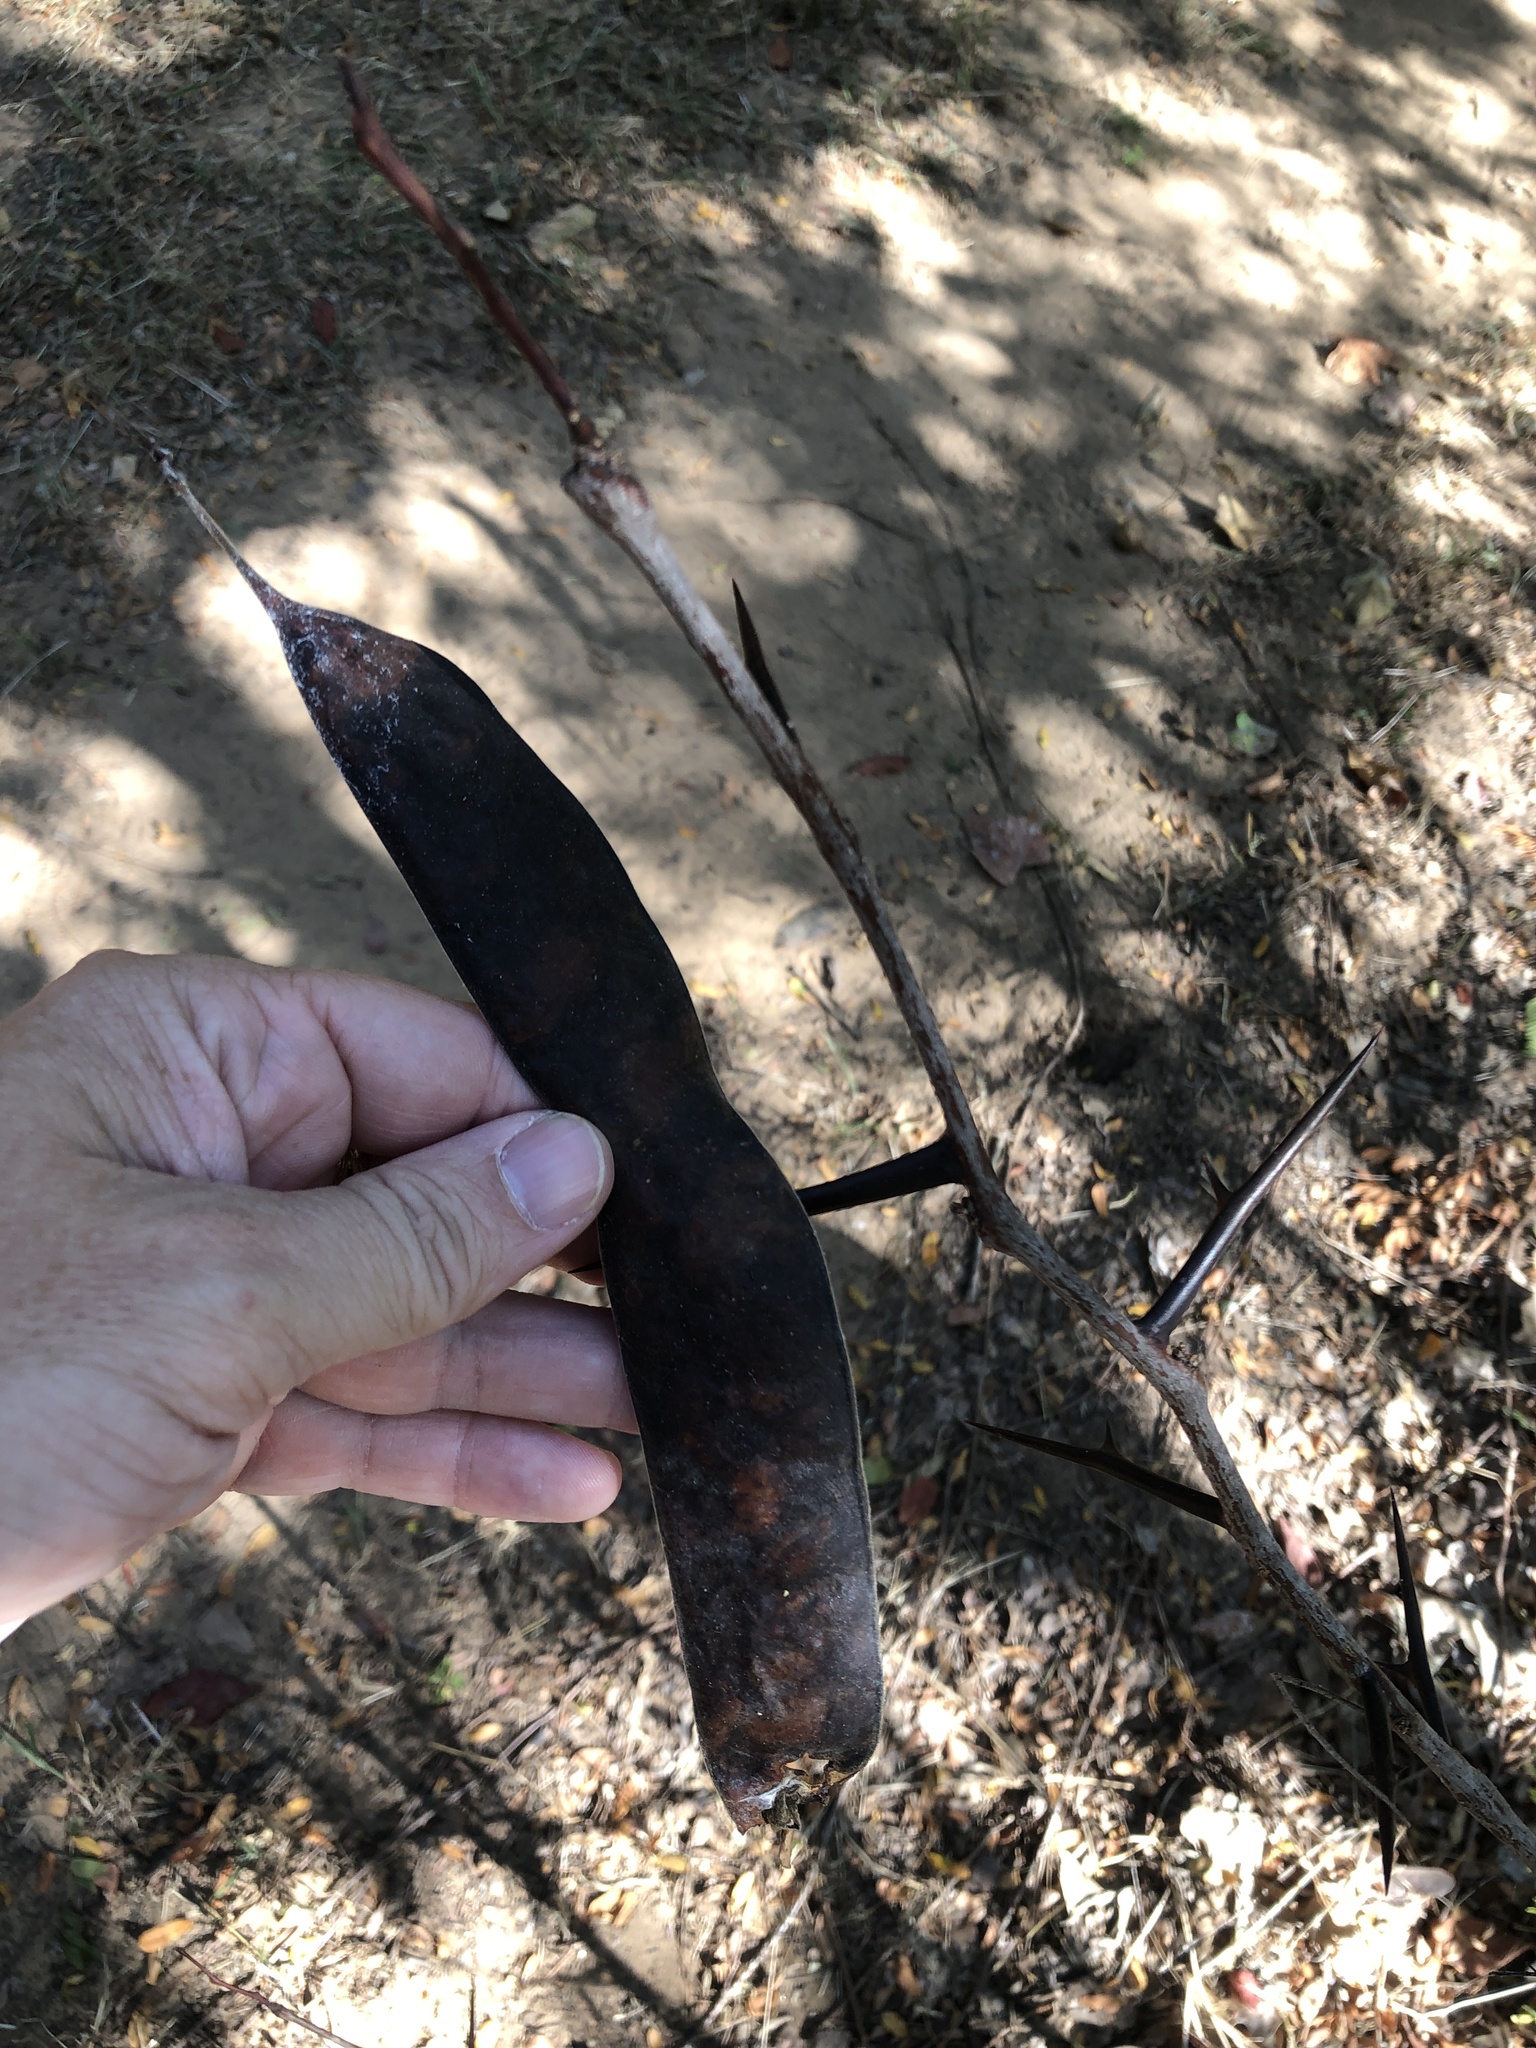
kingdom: Plantae
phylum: Tracheophyta
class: Magnoliopsida
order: Fabales
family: Fabaceae
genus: Gleditsia
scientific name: Gleditsia triacanthos
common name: Common honeylocust
